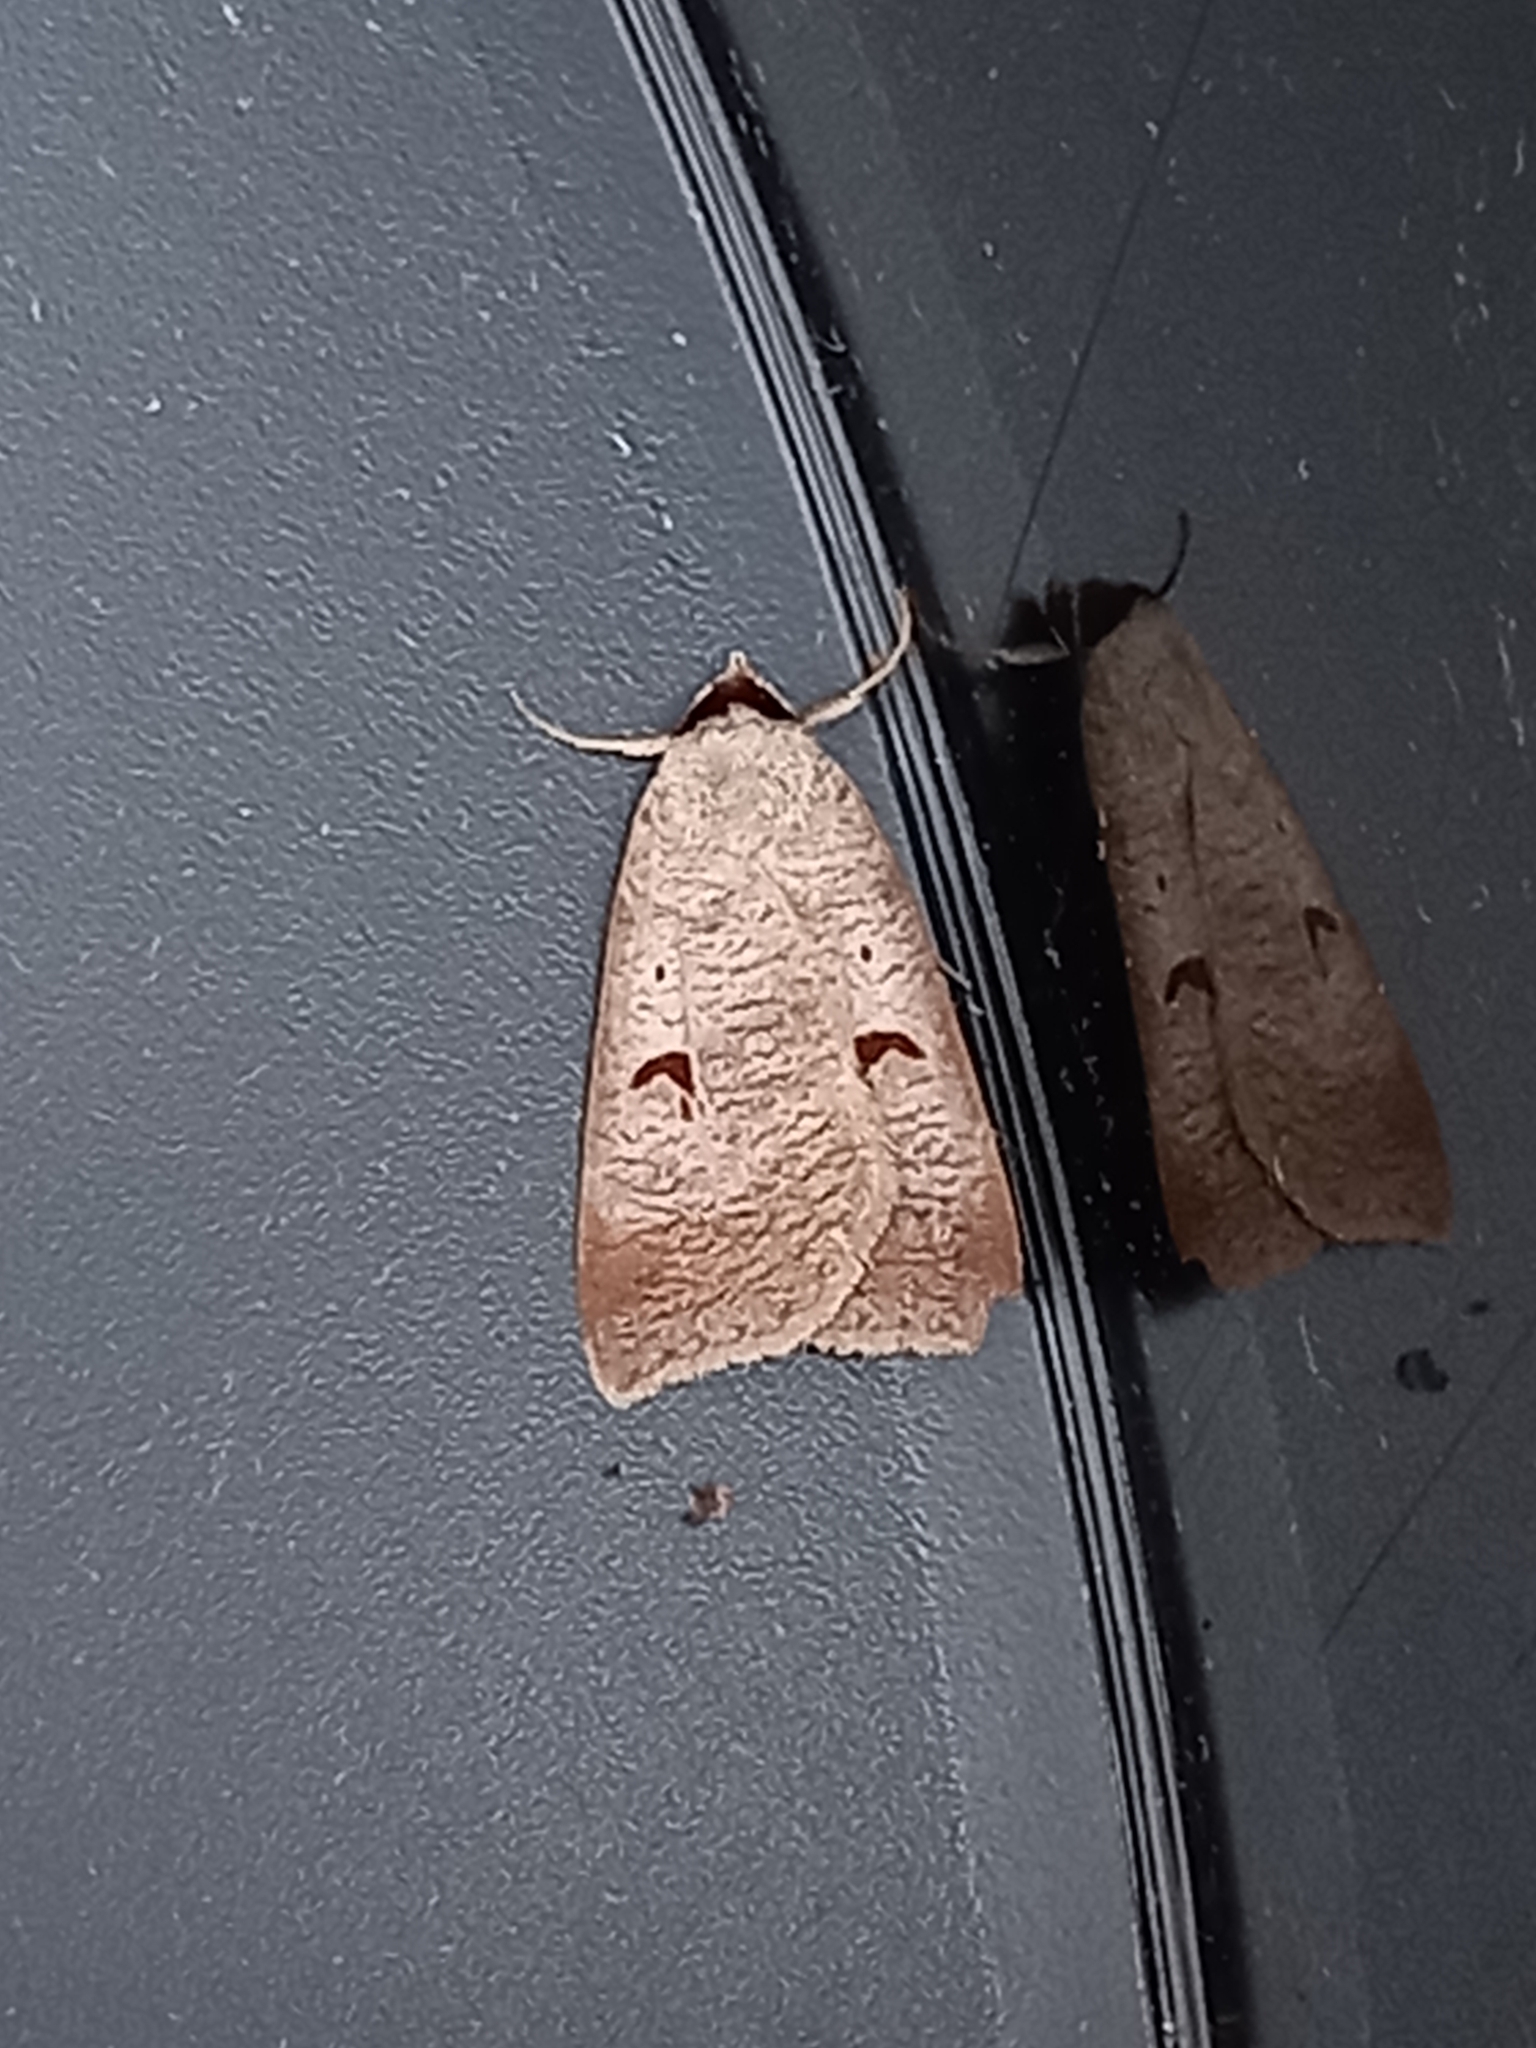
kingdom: Animalia
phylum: Arthropoda
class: Insecta
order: Lepidoptera
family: Erebidae
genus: Lygephila
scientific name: Lygephila pastinum
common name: Blackneck
